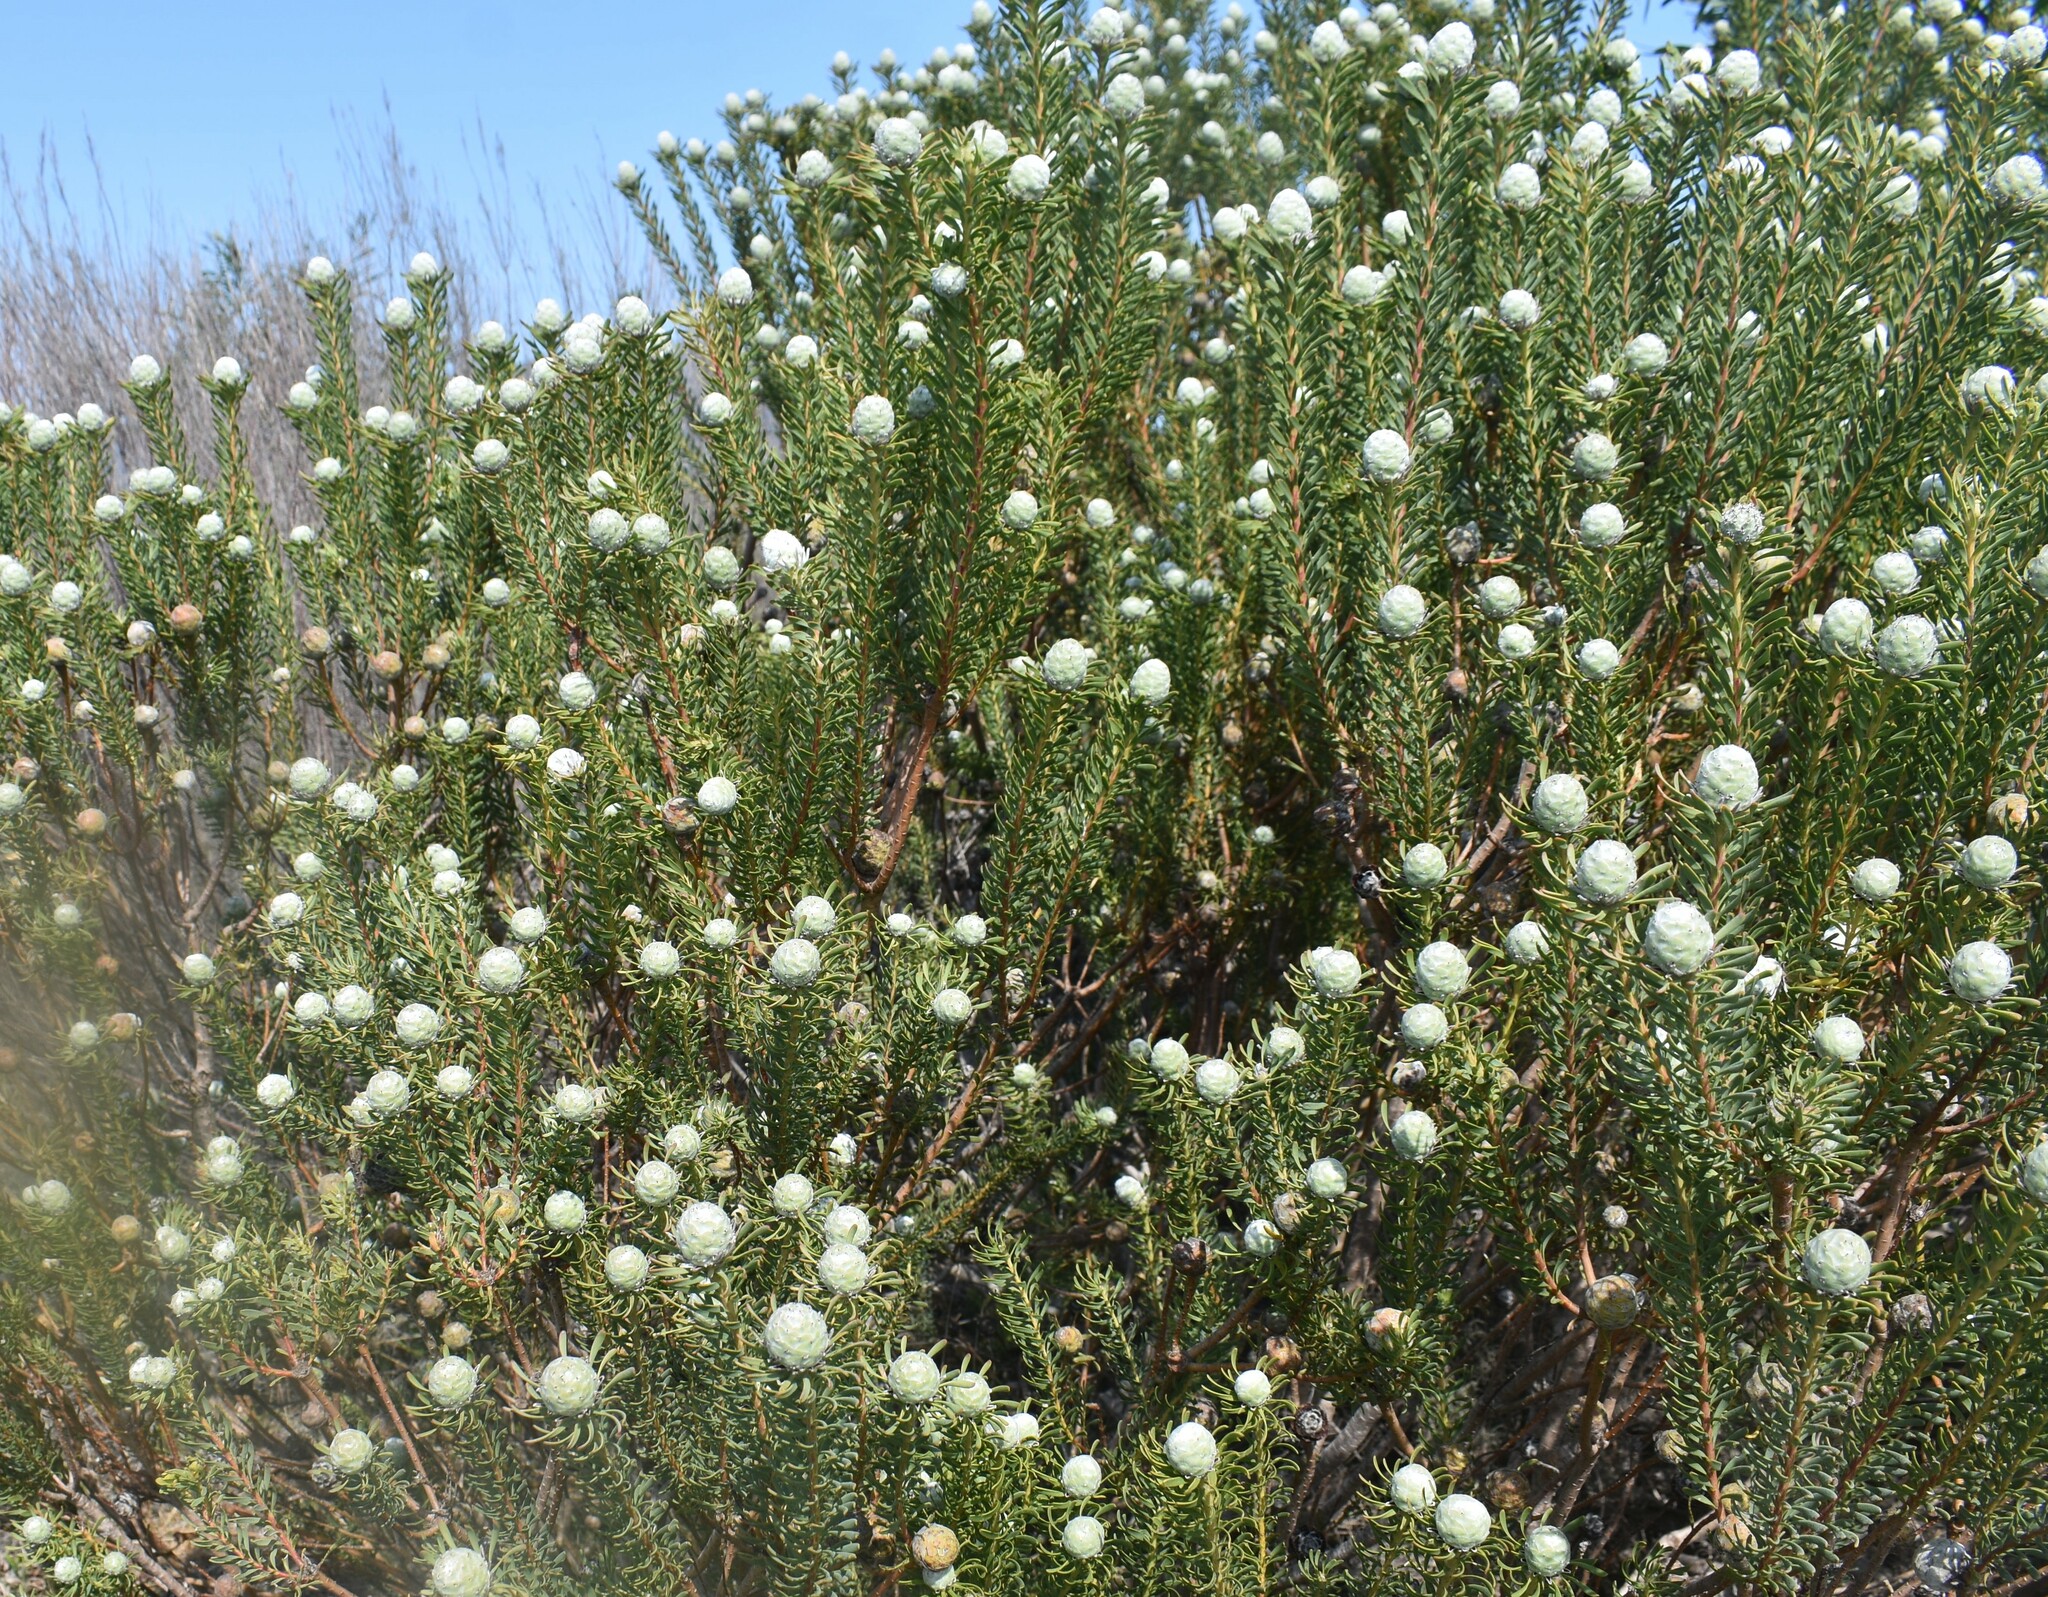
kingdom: Plantae
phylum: Tracheophyta
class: Magnoliopsida
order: Proteales
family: Proteaceae
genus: Leucadendron
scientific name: Leucadendron linifolium
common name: Line-leaf conebush
